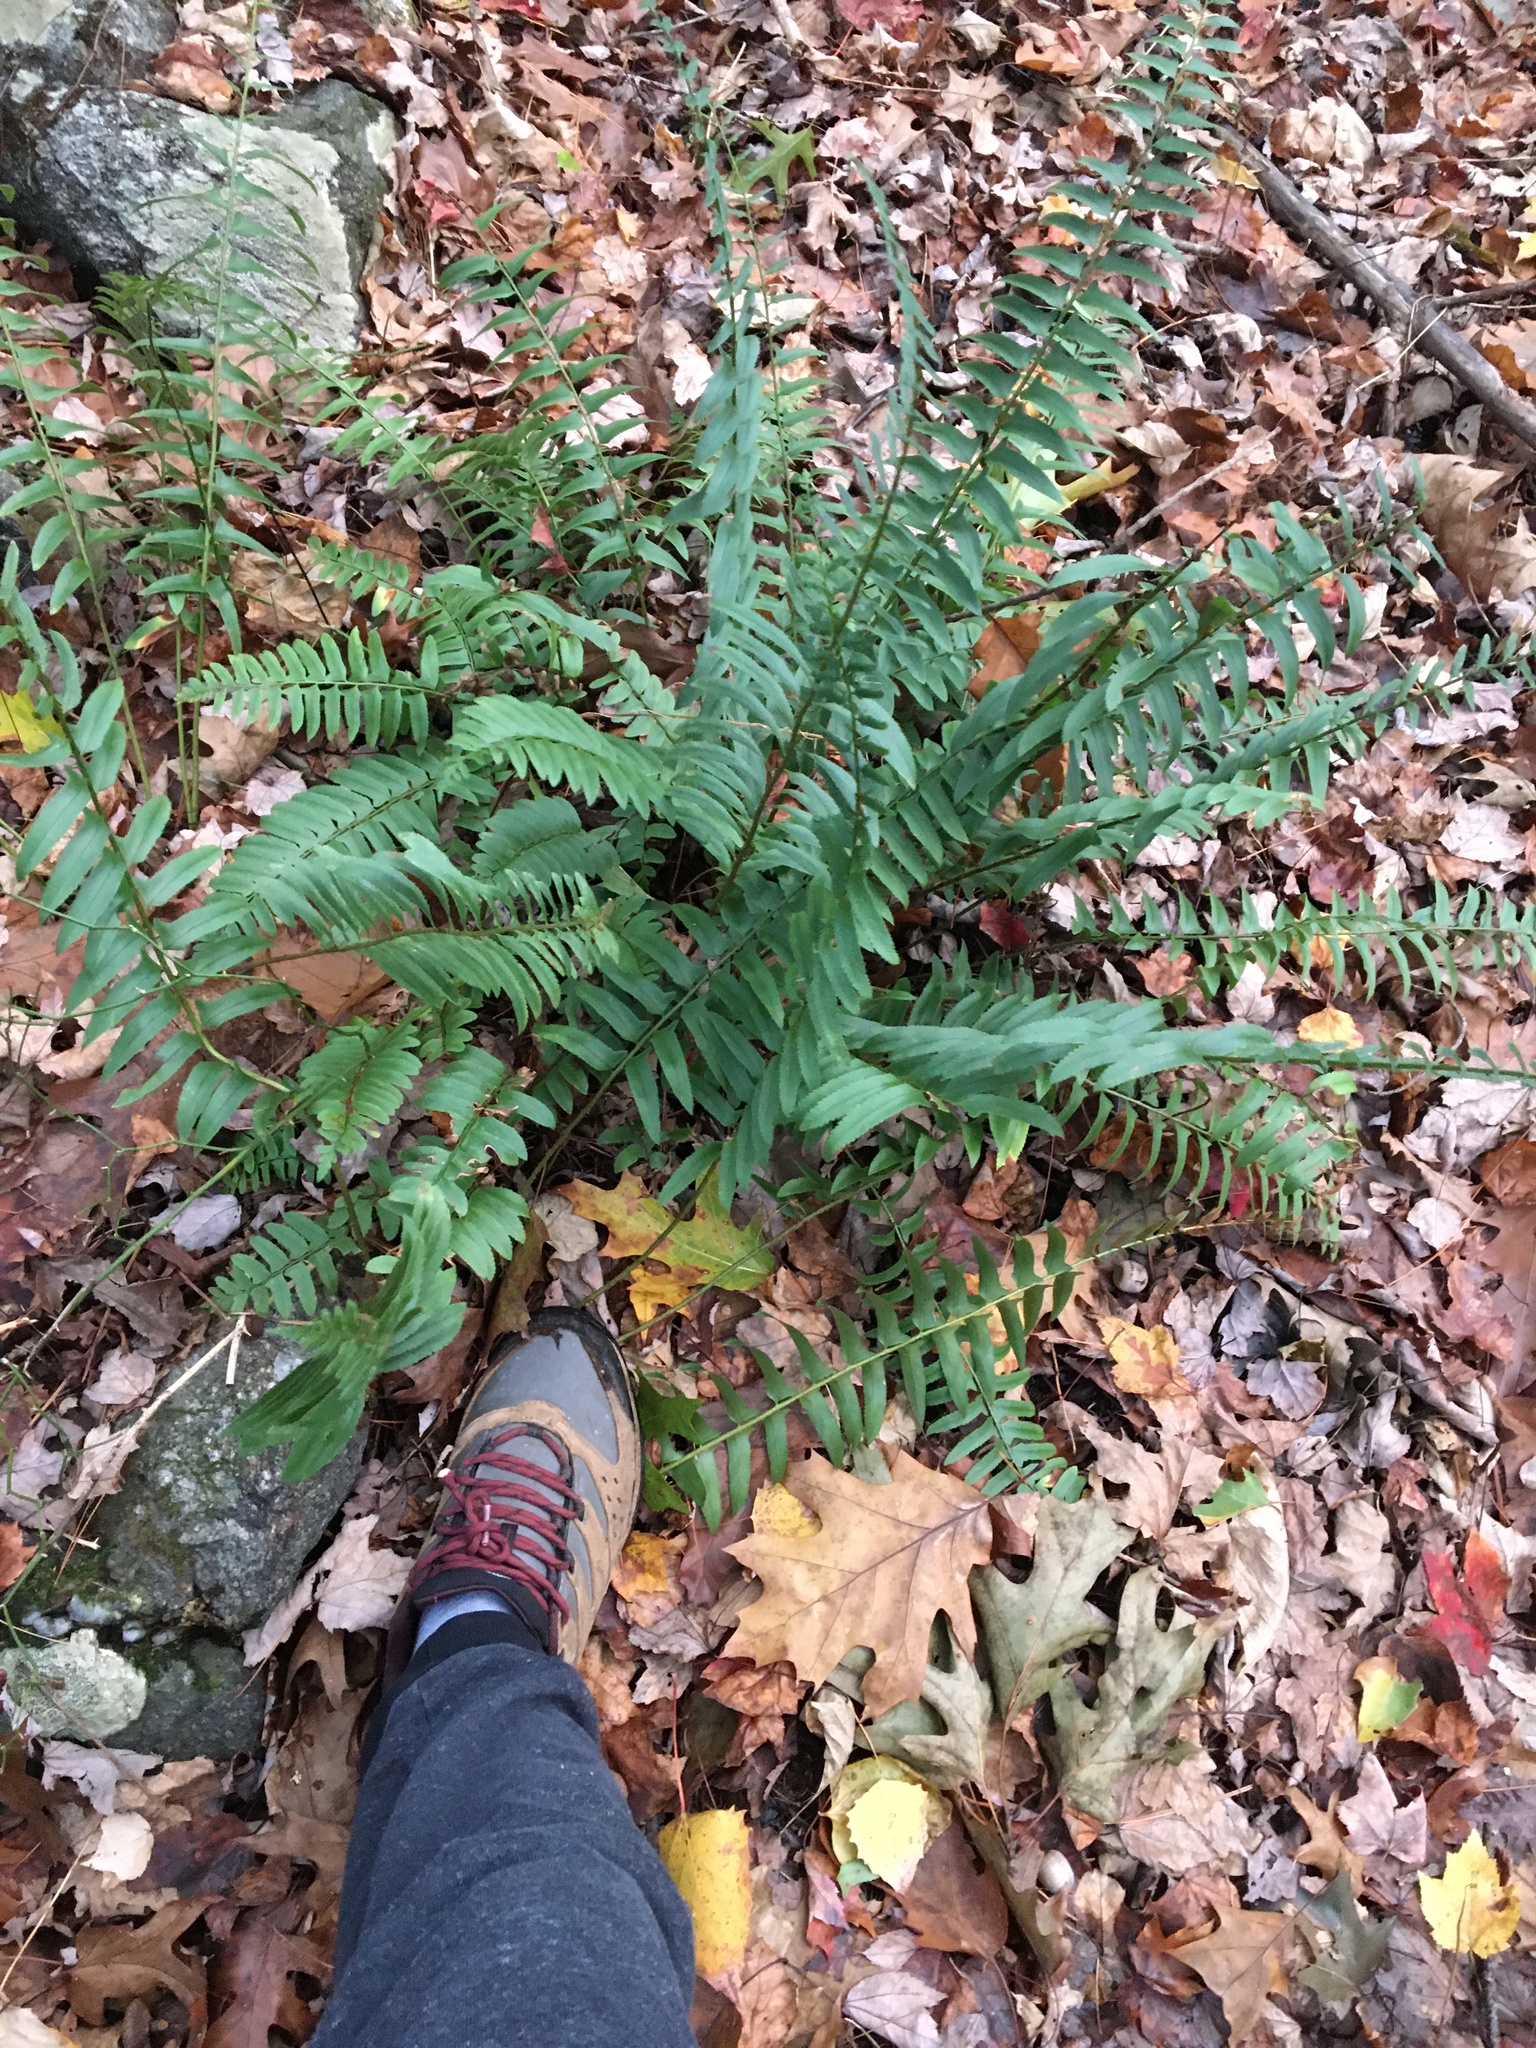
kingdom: Plantae
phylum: Tracheophyta
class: Polypodiopsida
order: Polypodiales
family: Dryopteridaceae
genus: Polystichum
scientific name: Polystichum acrostichoides
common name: Christmas fern
